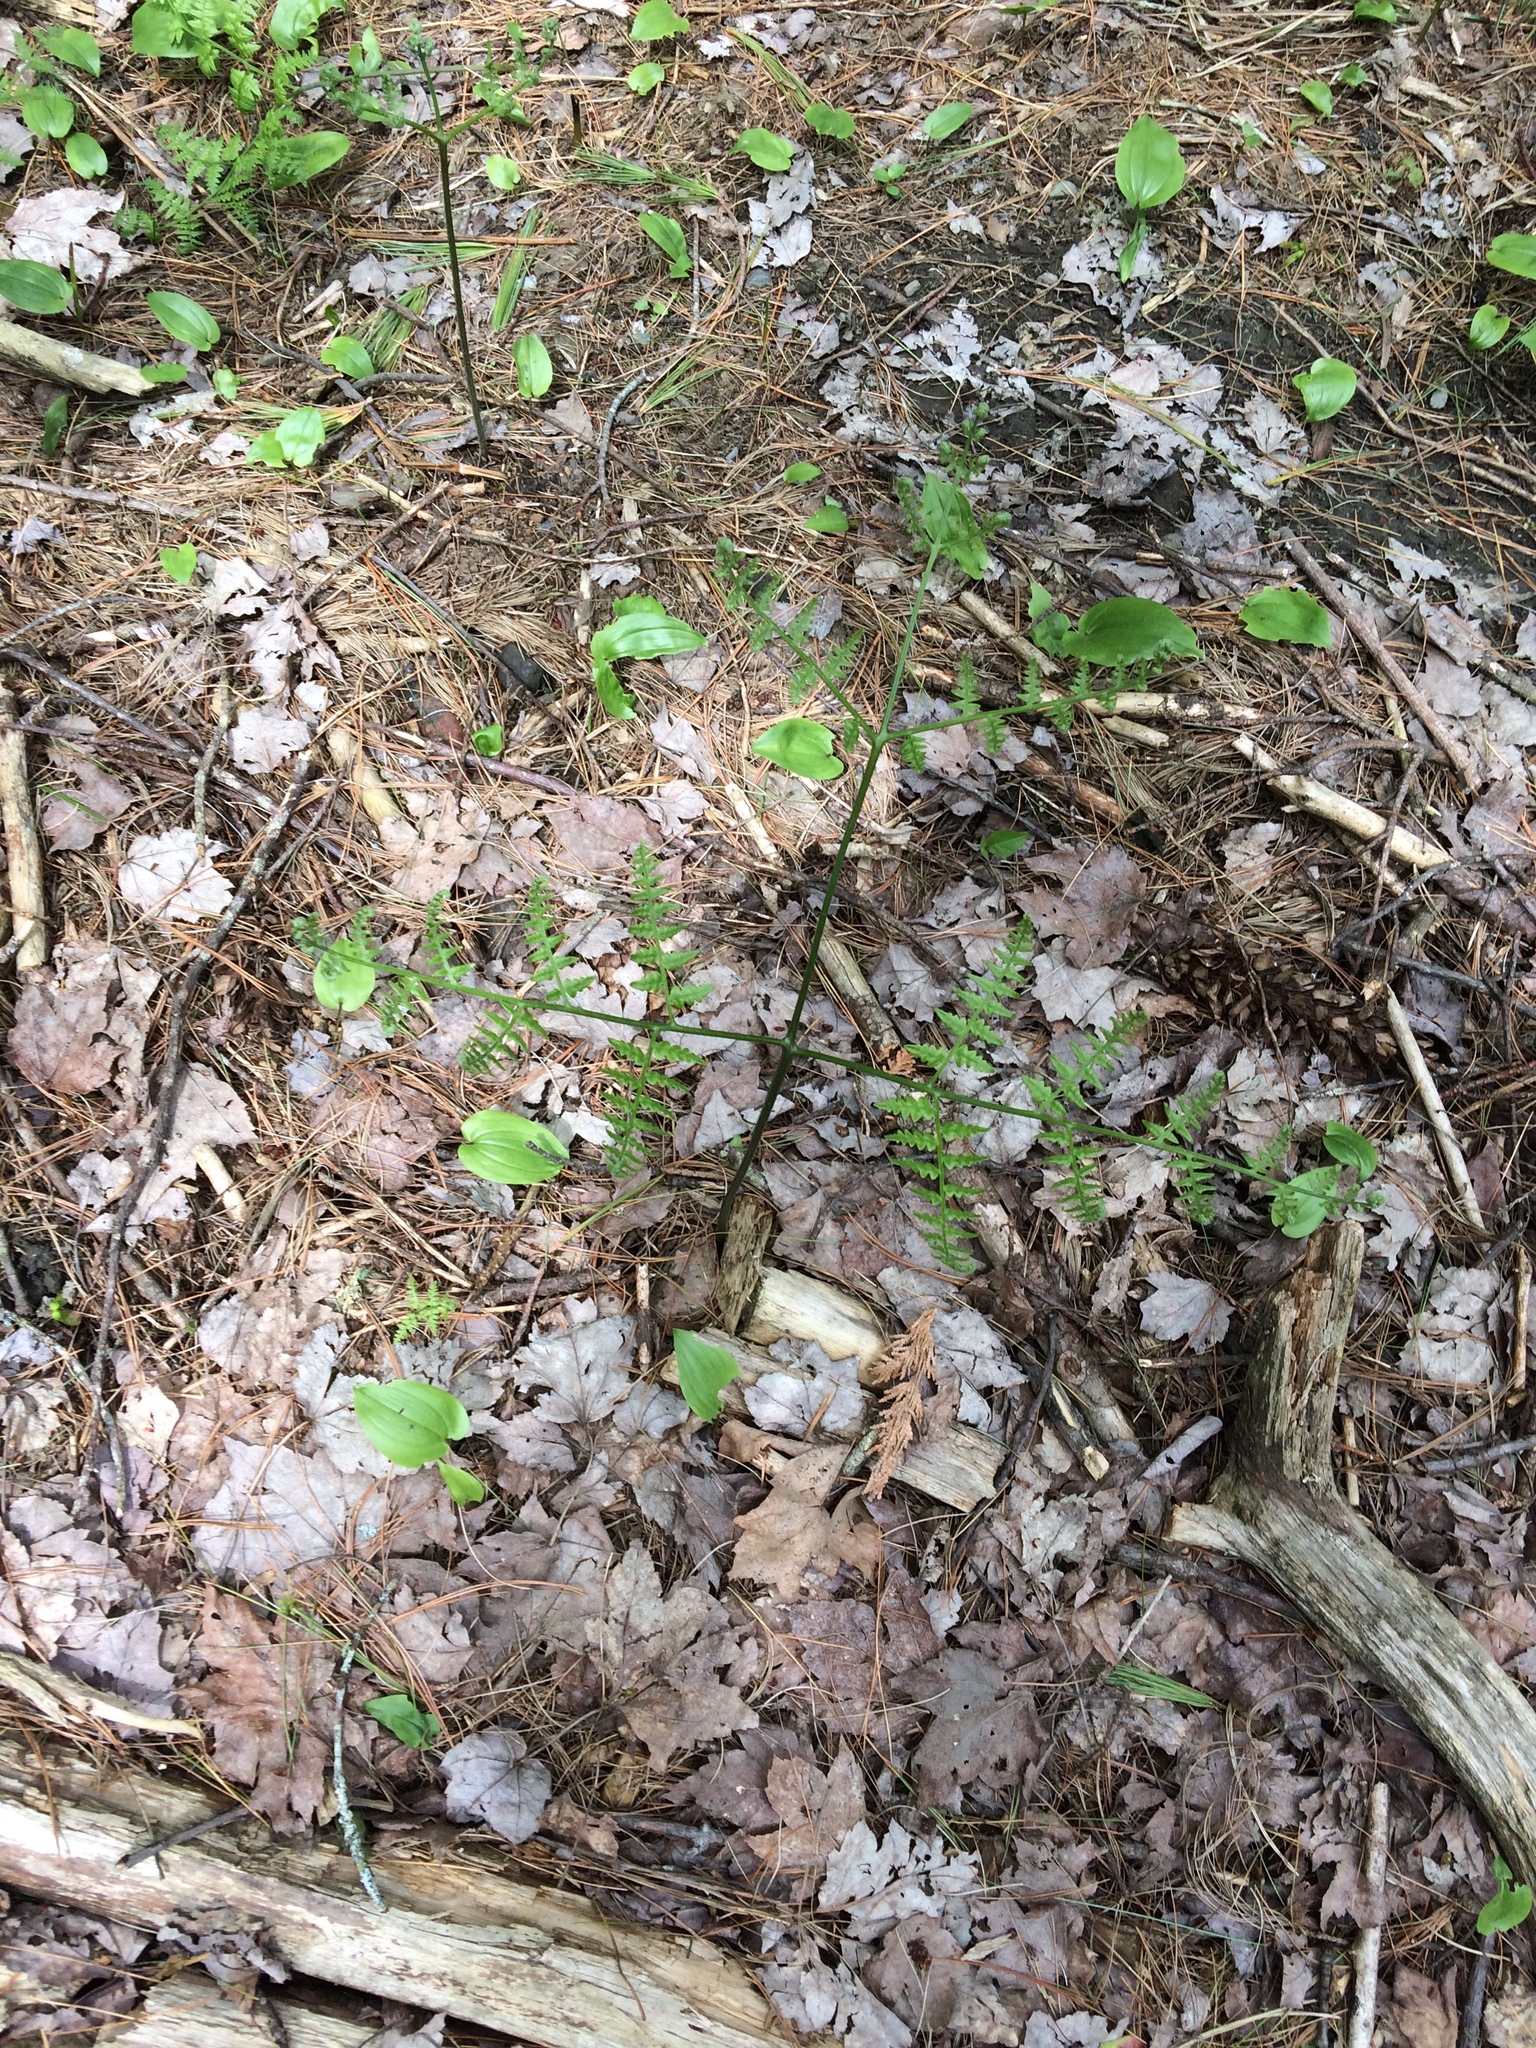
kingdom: Plantae
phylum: Tracheophyta
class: Polypodiopsida
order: Polypodiales
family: Dennstaedtiaceae
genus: Pteridium
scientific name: Pteridium aquilinum
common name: Bracken
